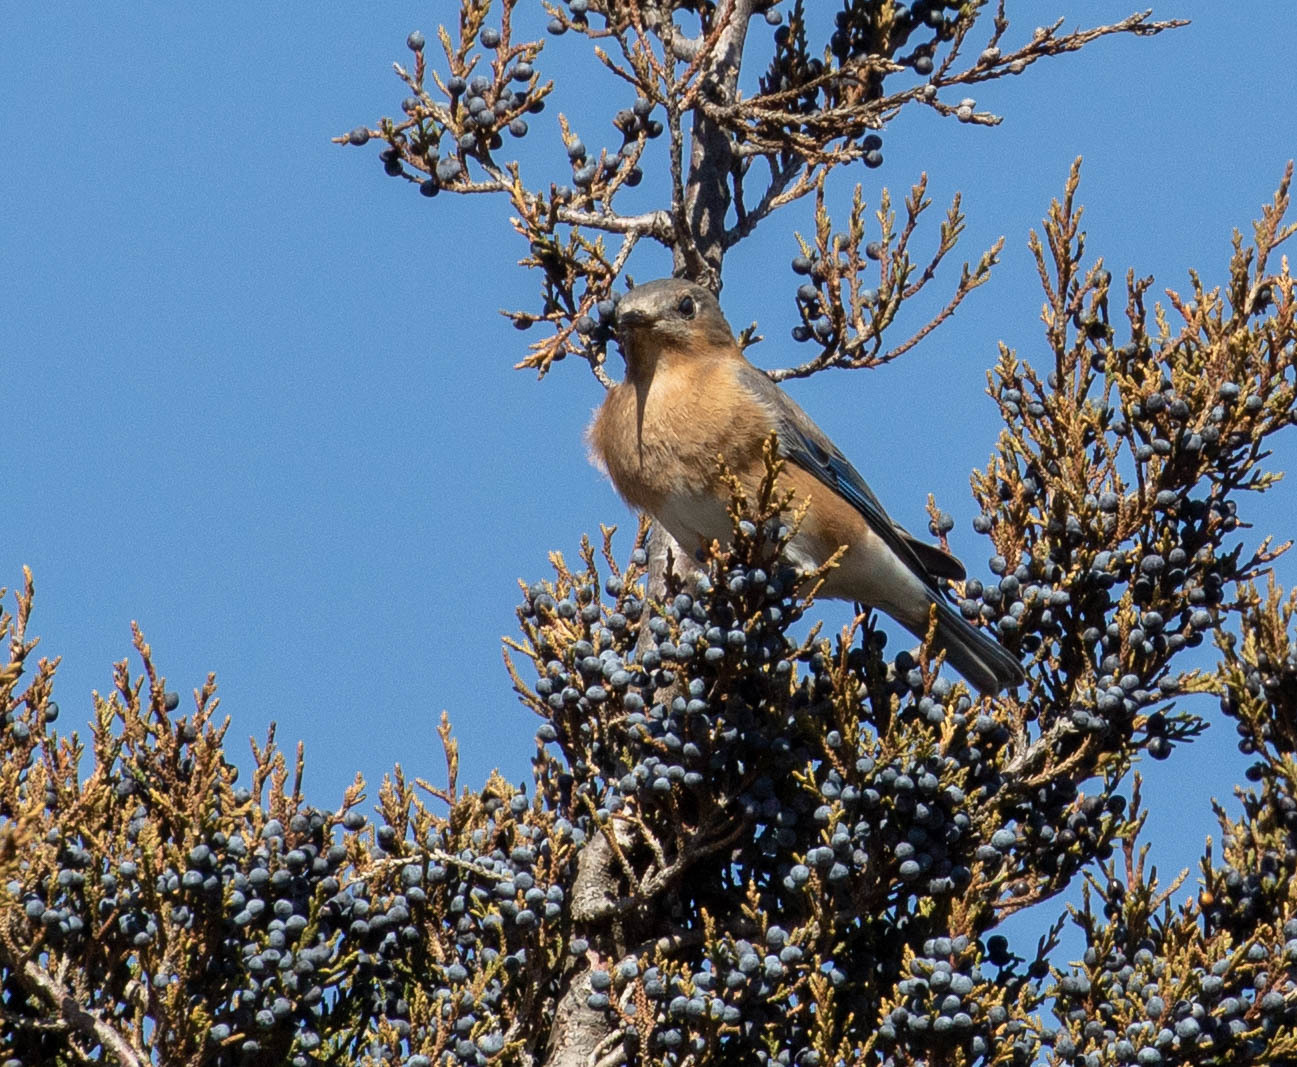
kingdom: Animalia
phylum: Chordata
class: Aves
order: Passeriformes
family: Turdidae
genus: Sialia
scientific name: Sialia sialis
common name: Eastern bluebird
